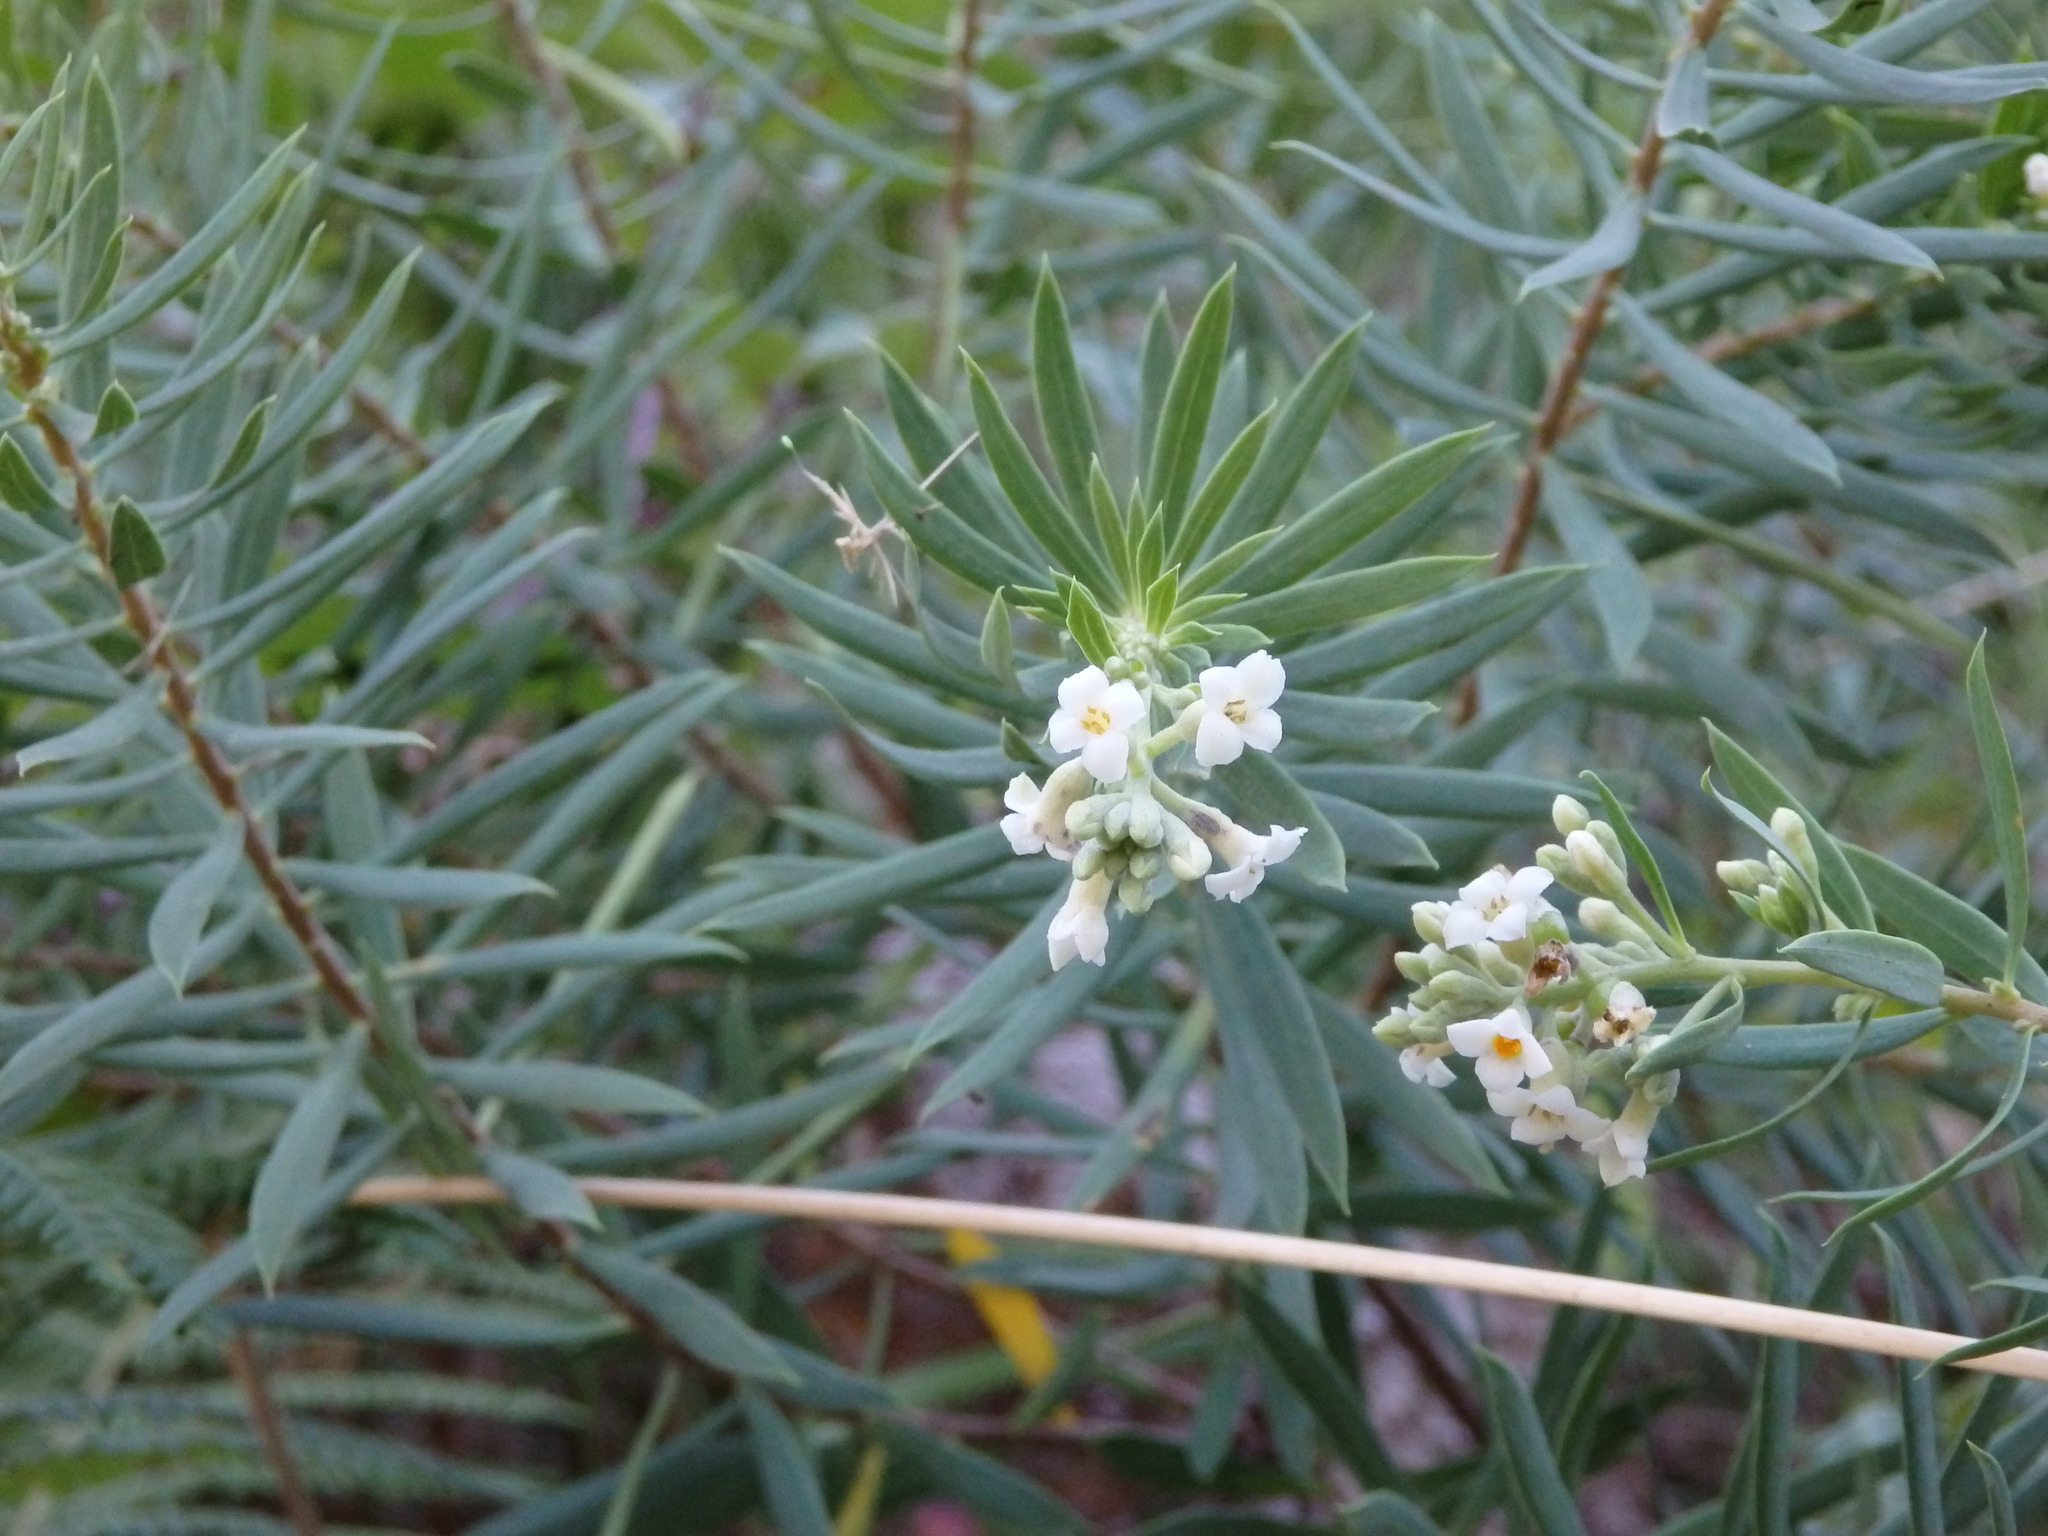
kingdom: Plantae
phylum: Tracheophyta
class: Magnoliopsida
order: Malvales
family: Thymelaeaceae
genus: Daphne
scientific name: Daphne gnidium
